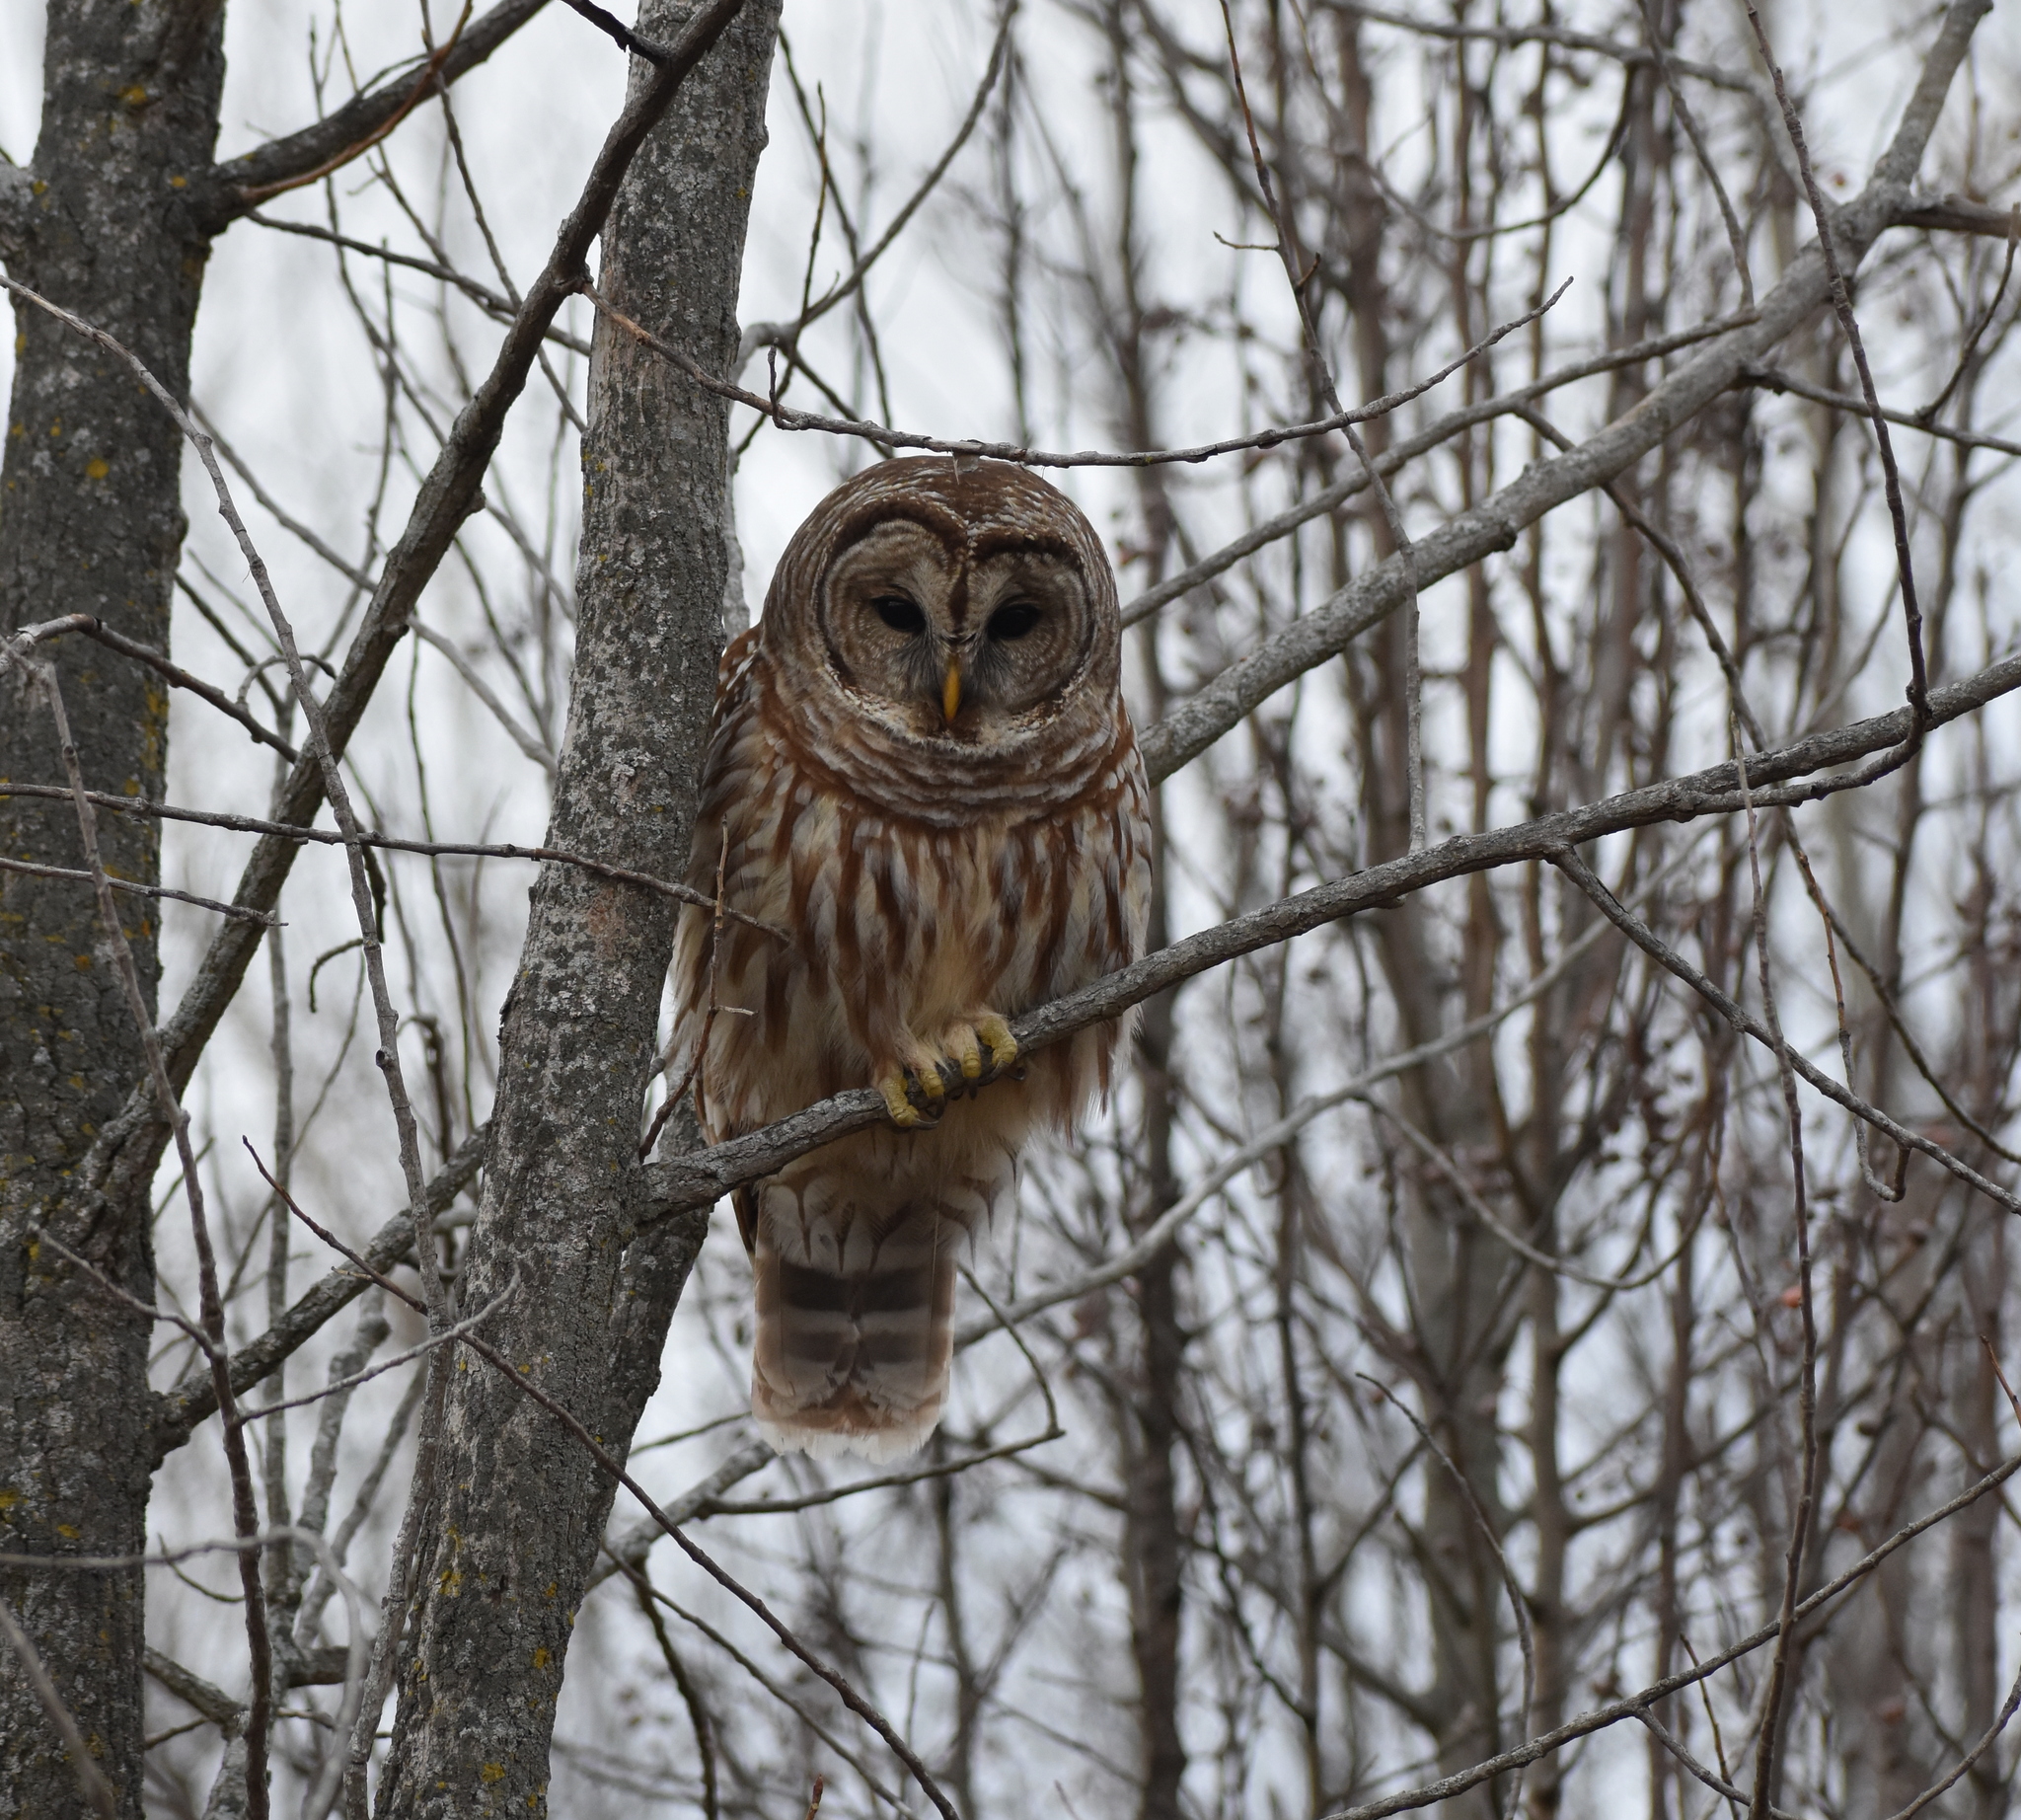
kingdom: Animalia
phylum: Chordata
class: Aves
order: Strigiformes
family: Strigidae
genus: Strix
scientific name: Strix varia
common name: Barred owl
